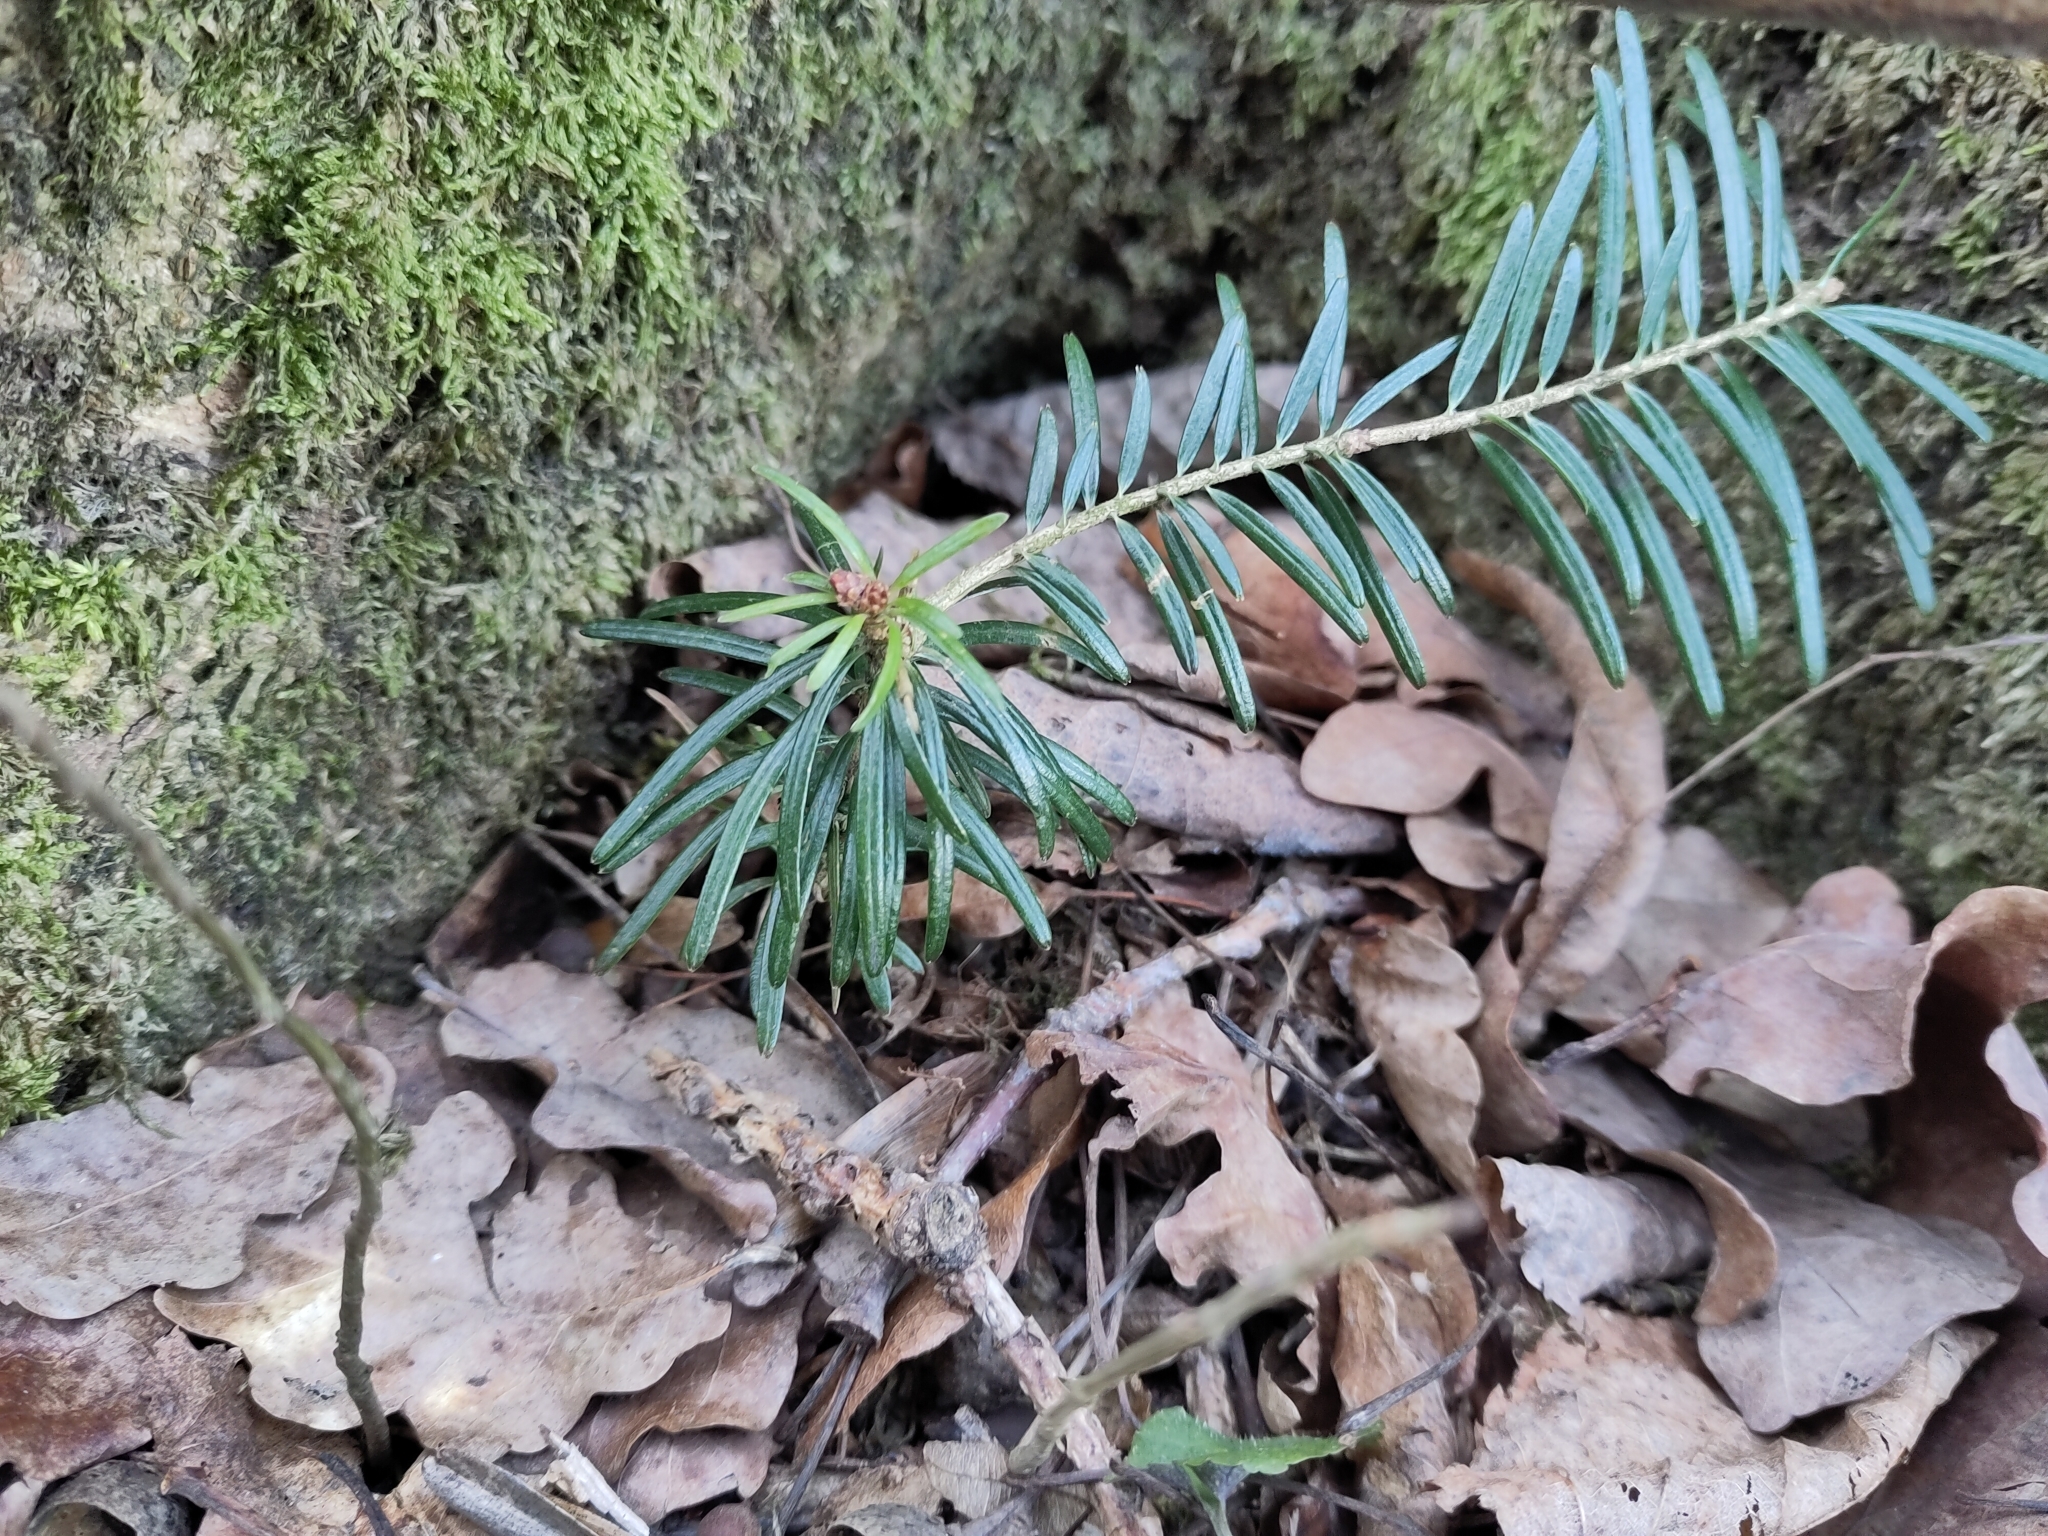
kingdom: Plantae
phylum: Tracheophyta
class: Pinopsida
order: Pinales
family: Pinaceae
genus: Abies
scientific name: Abies alba
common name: Silver fir
